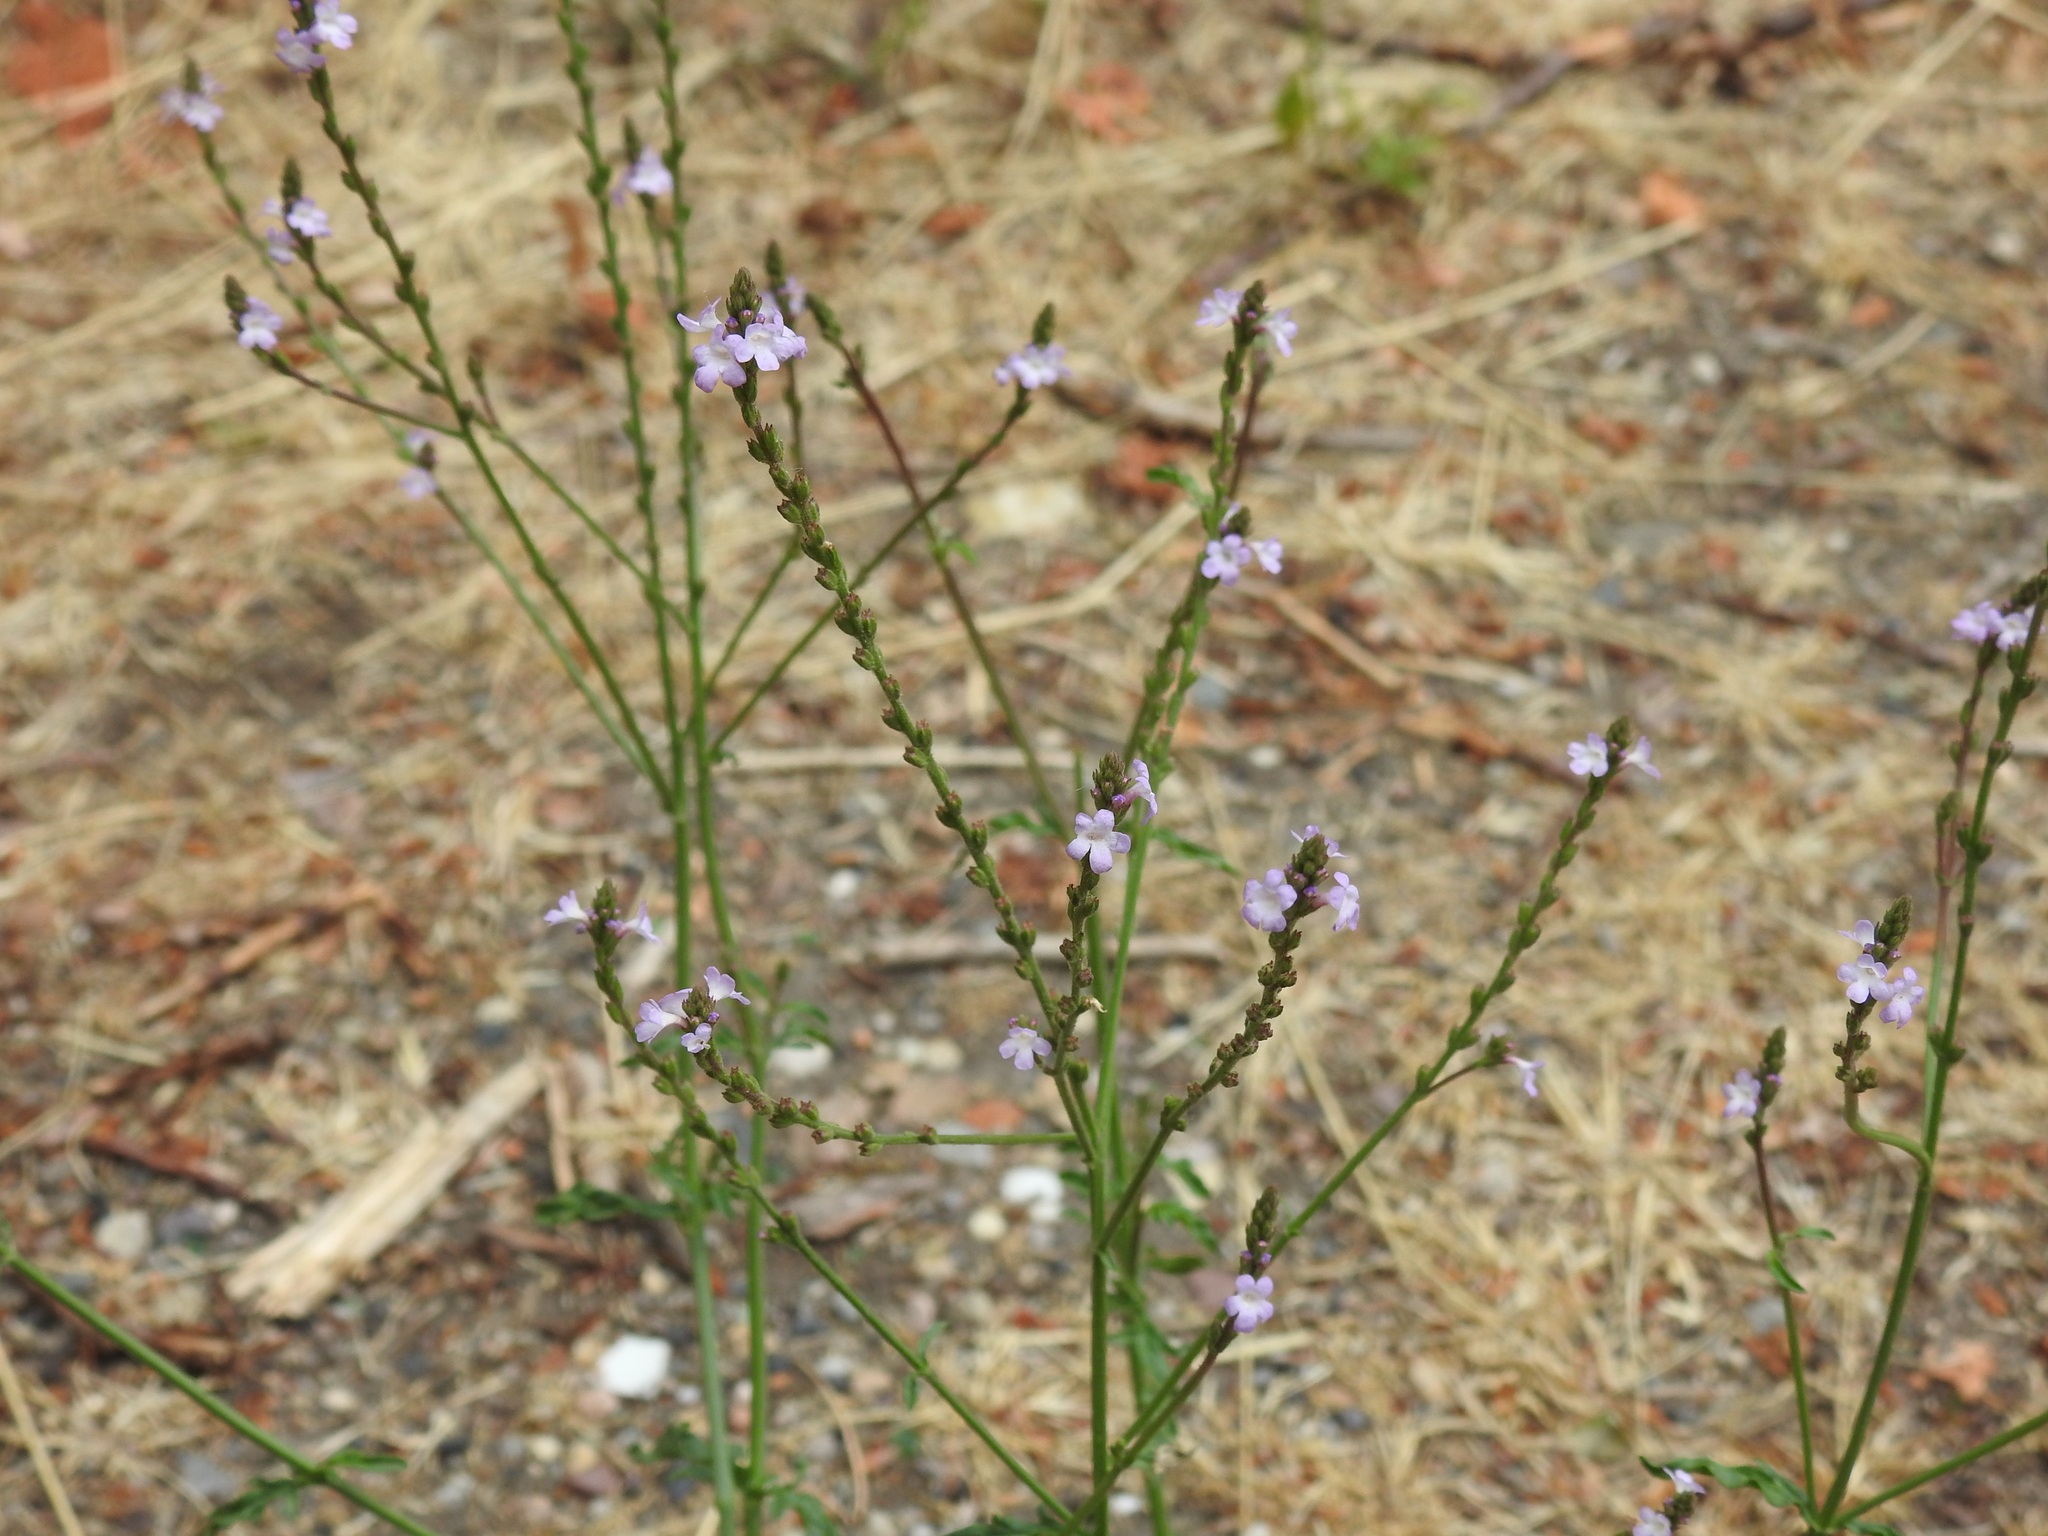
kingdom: Plantae
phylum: Tracheophyta
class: Magnoliopsida
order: Lamiales
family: Verbenaceae
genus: Verbena
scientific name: Verbena officinalis
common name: Vervain
